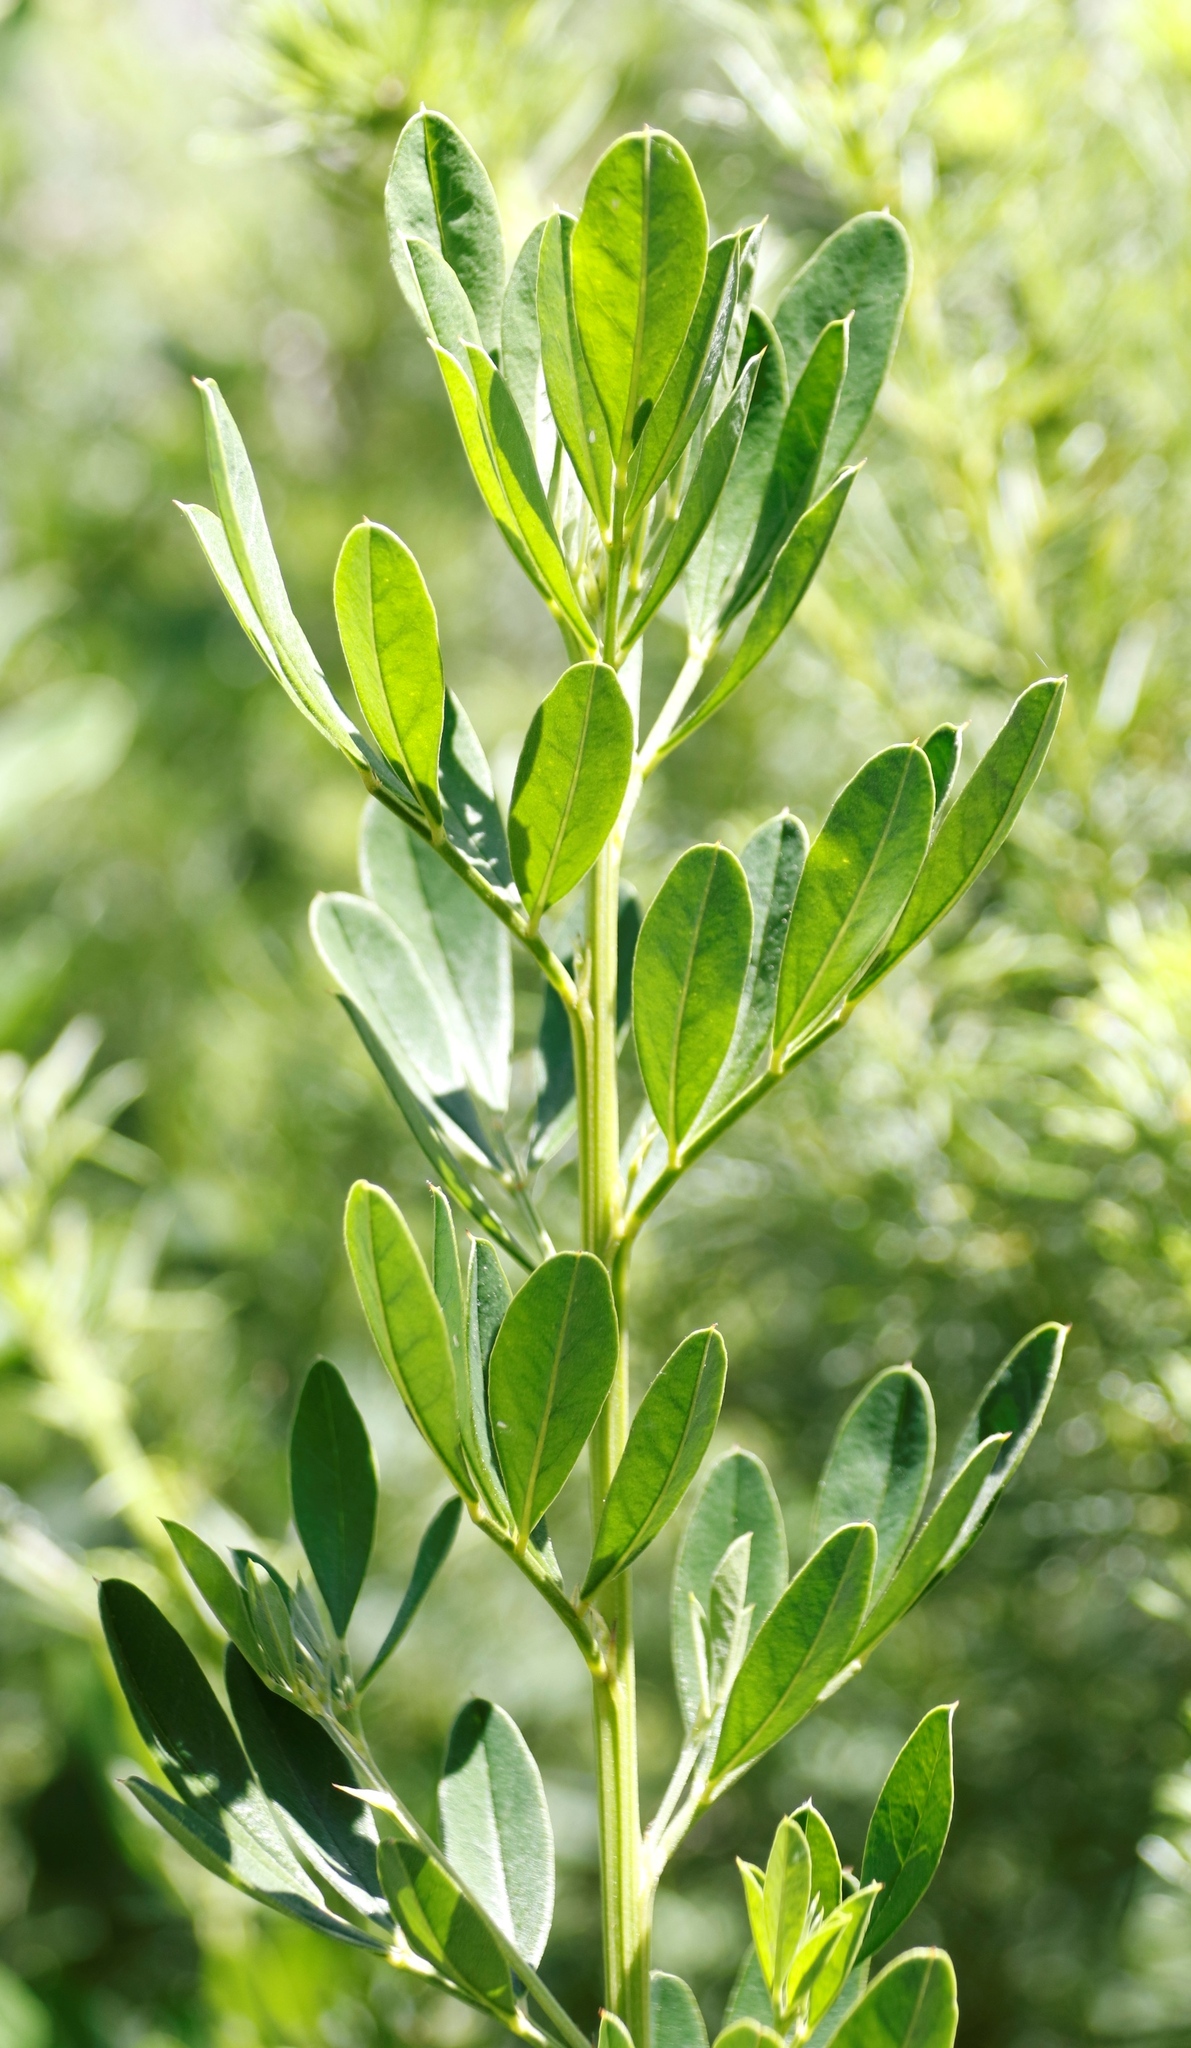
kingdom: Plantae
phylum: Tracheophyta
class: Magnoliopsida
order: Fabales
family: Fabaceae
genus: Indigofera
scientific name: Indigofera cytisoides
